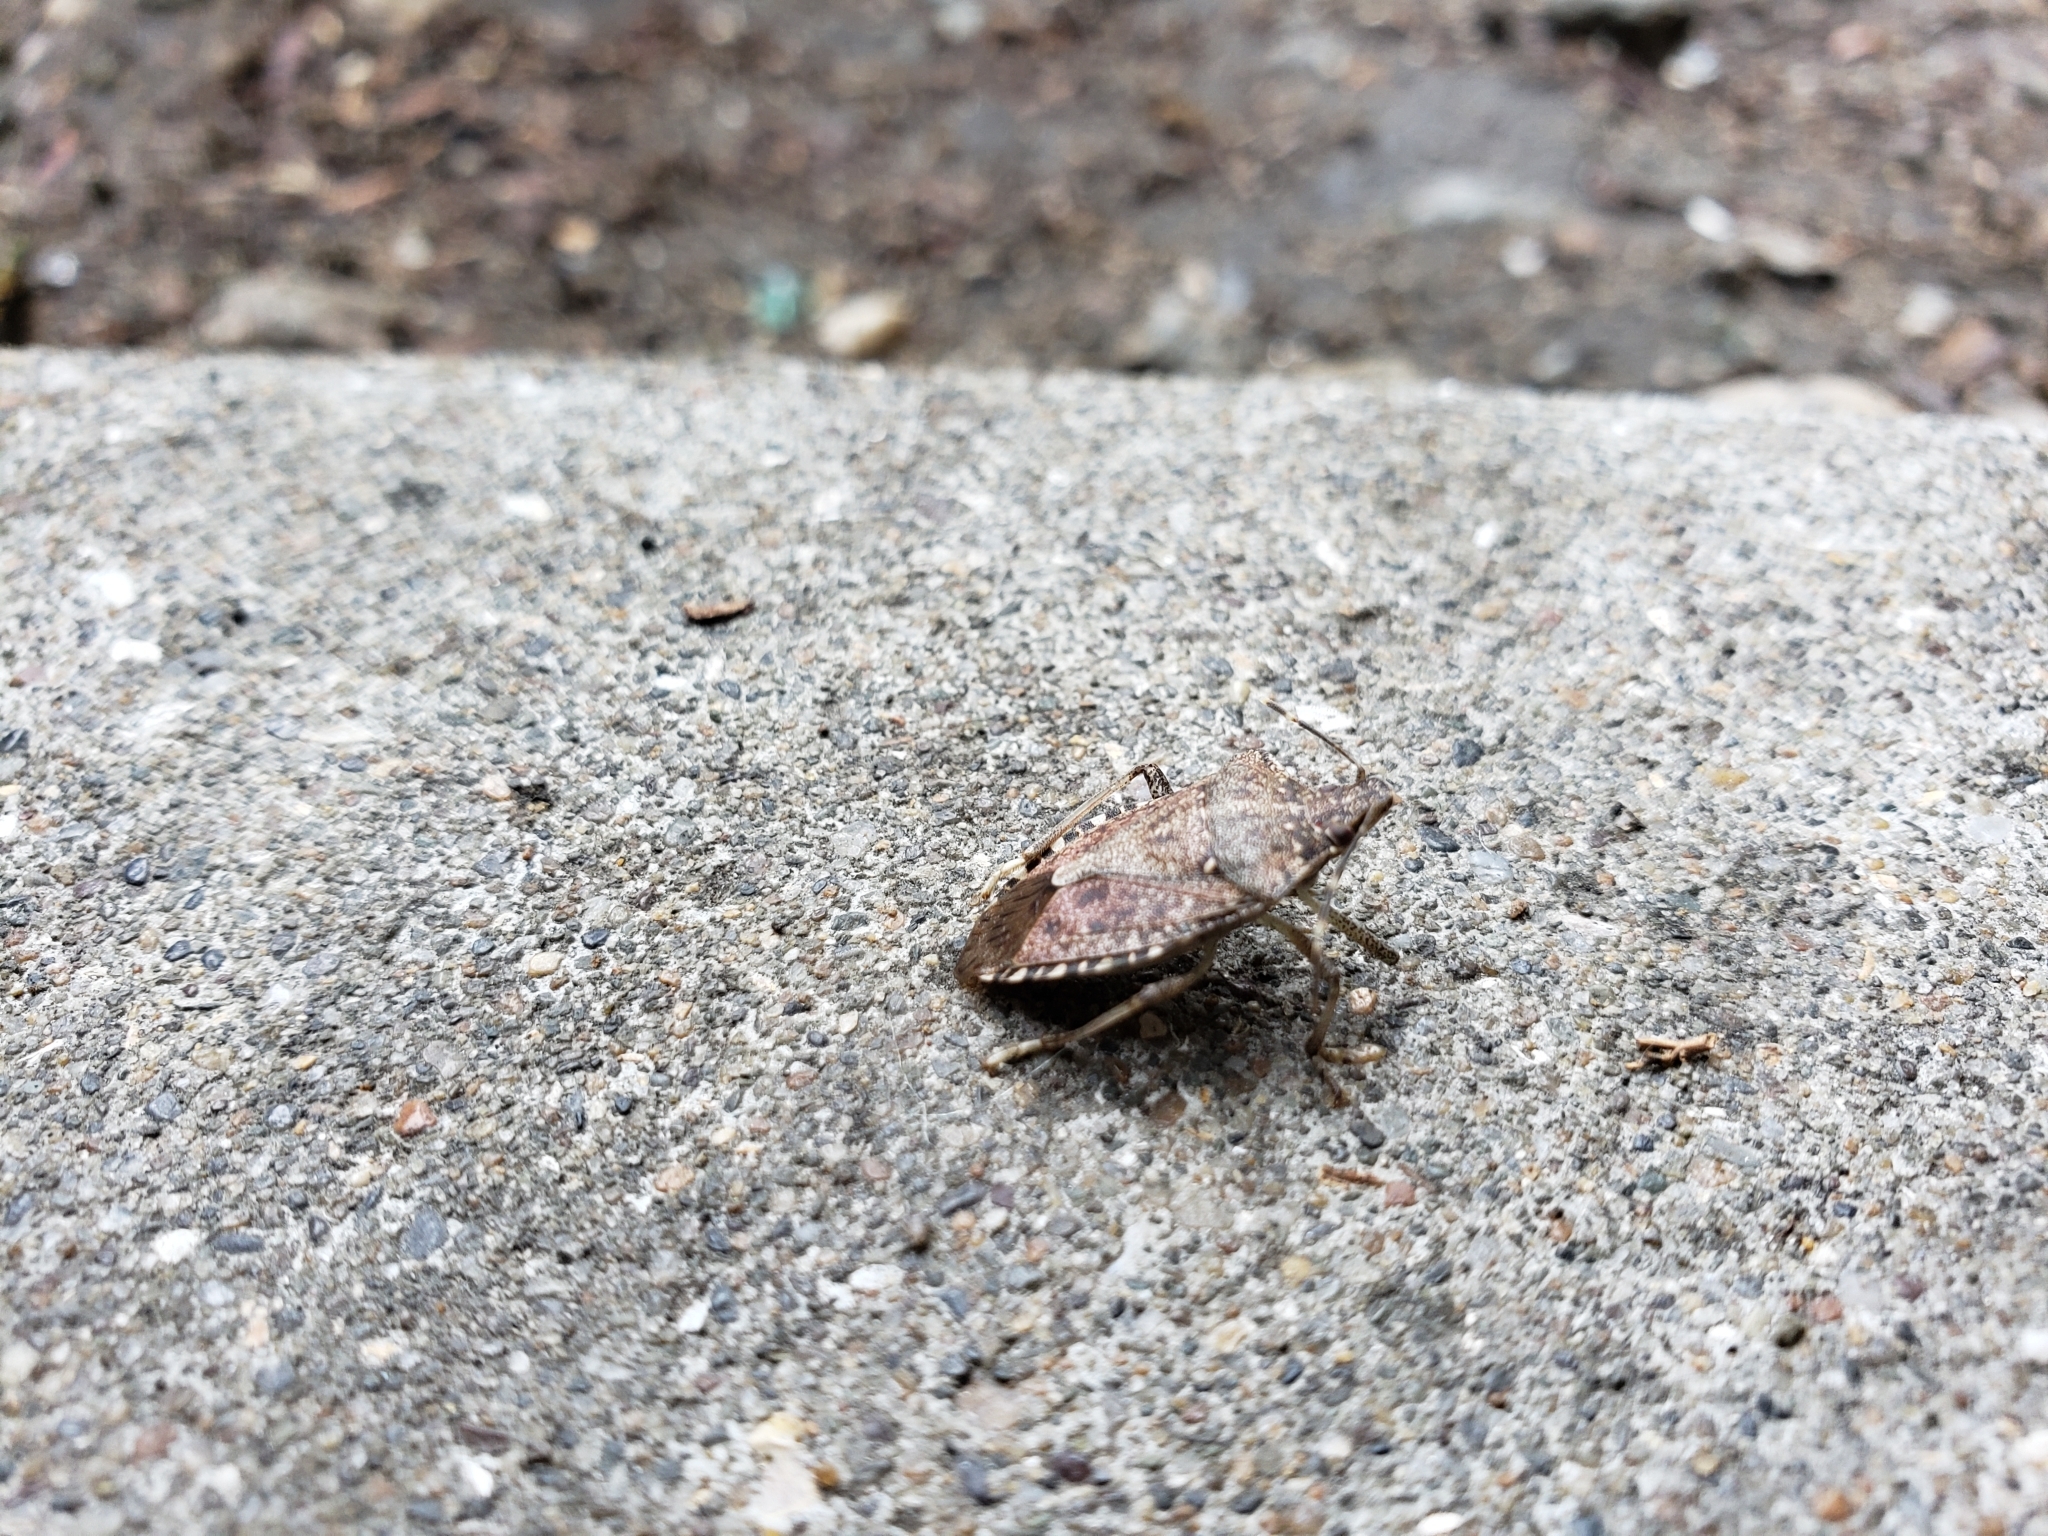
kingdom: Animalia
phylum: Arthropoda
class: Insecta
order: Hemiptera
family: Pentatomidae
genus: Halyomorpha
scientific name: Halyomorpha halys
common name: Brown marmorated stink bug
